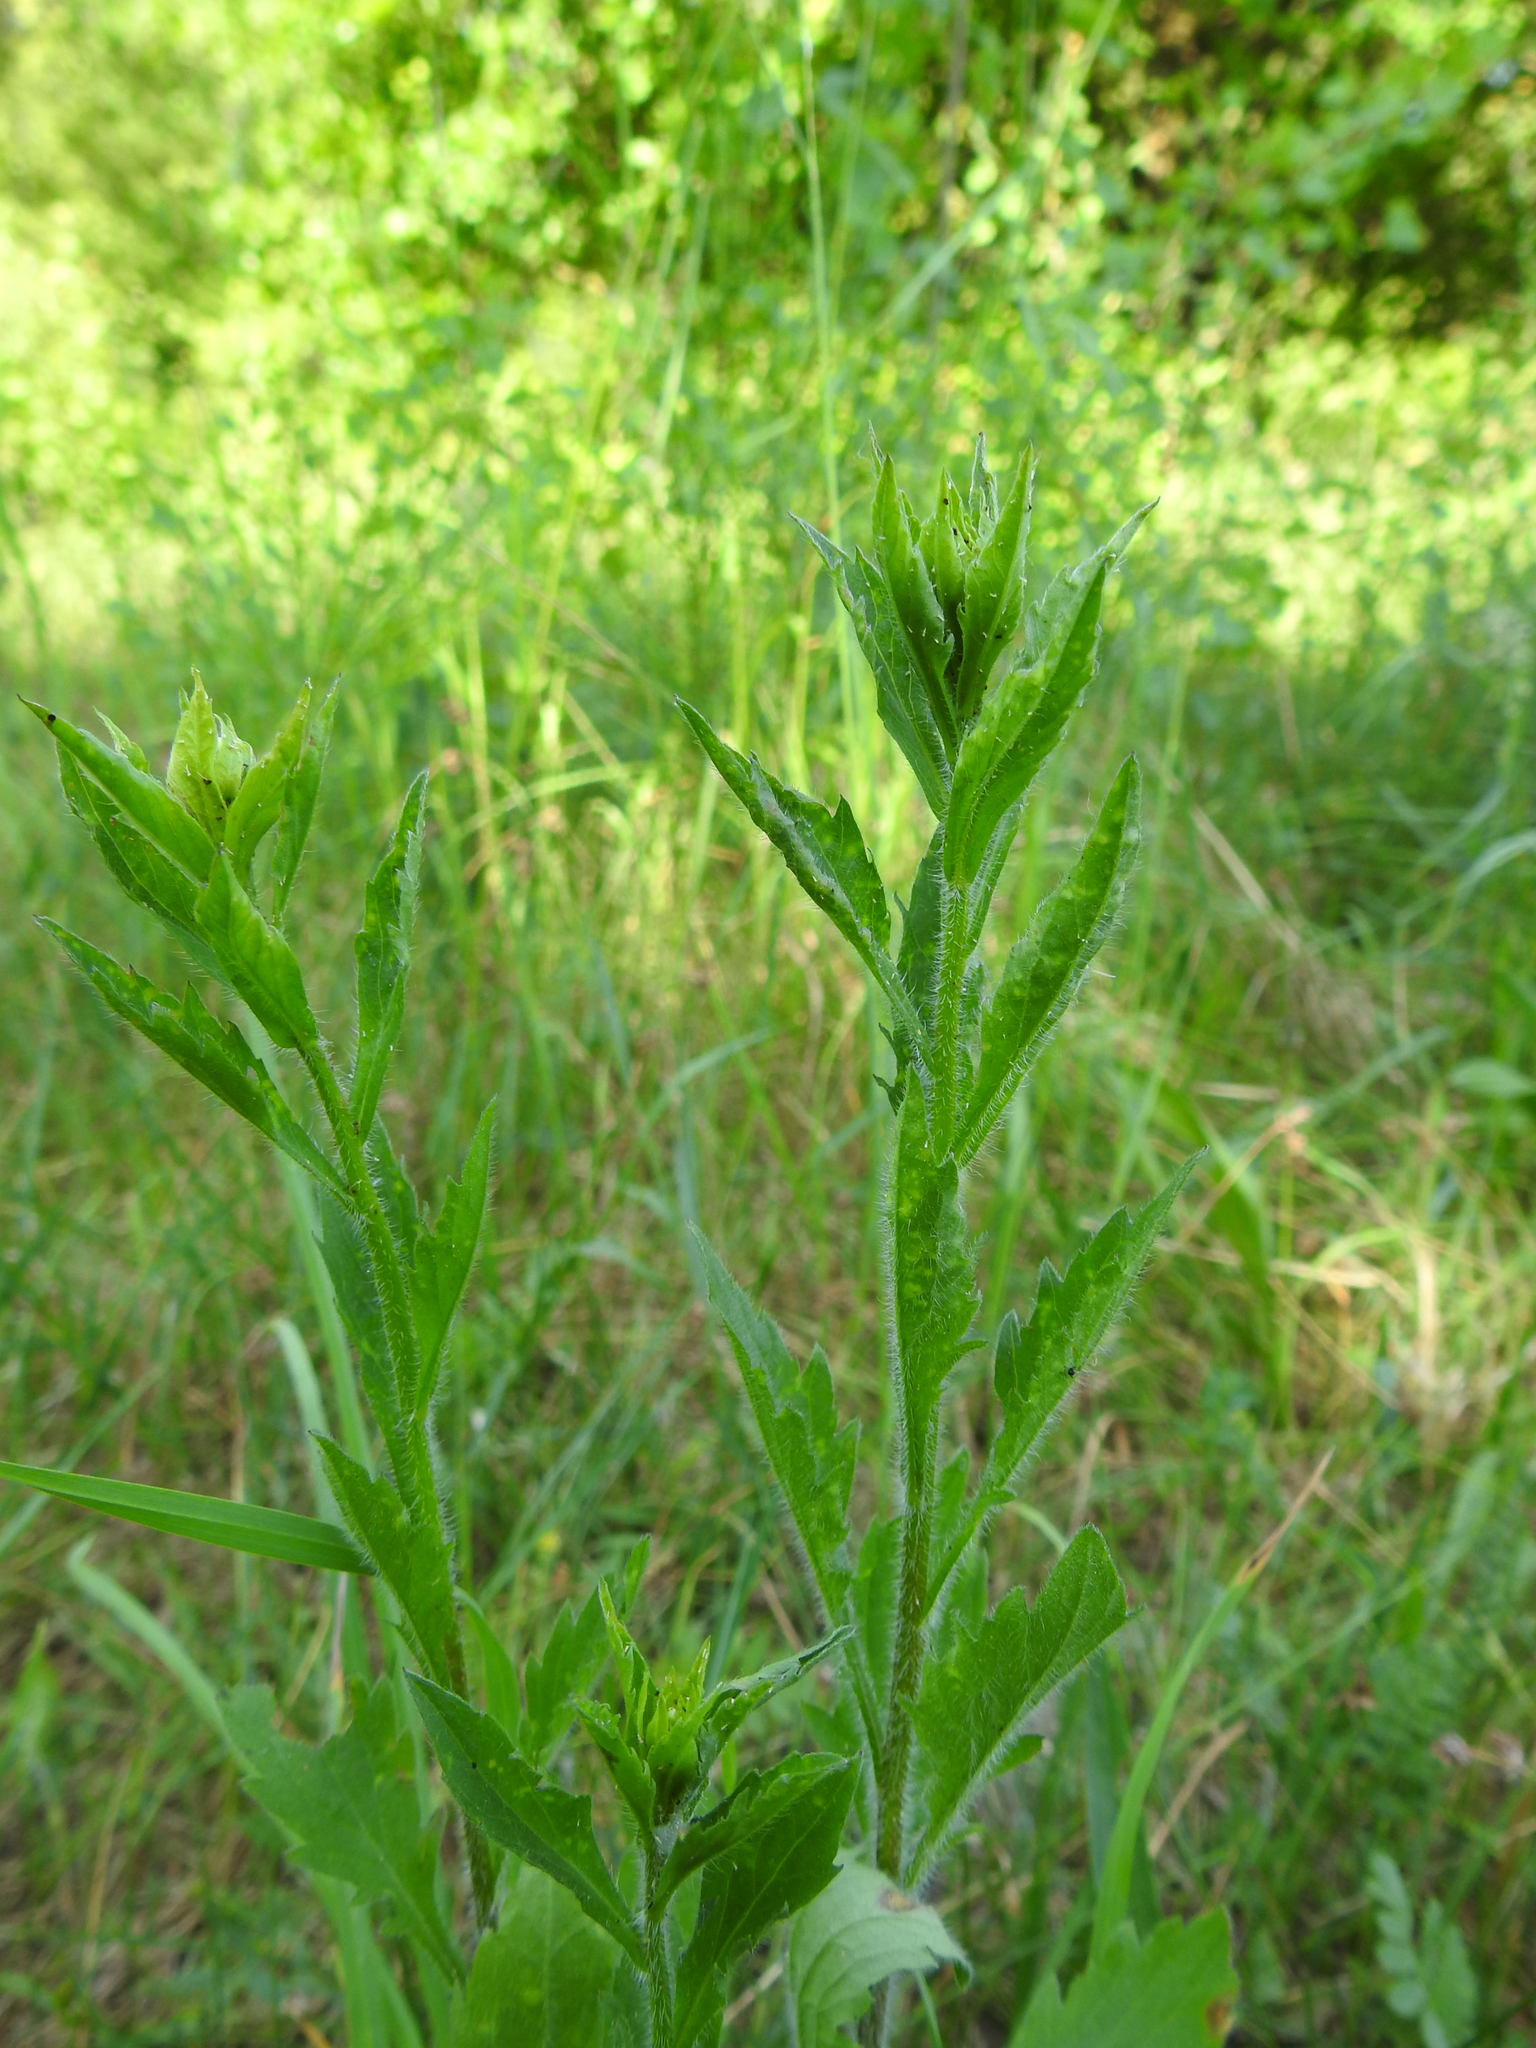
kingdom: Plantae
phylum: Tracheophyta
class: Magnoliopsida
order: Asterales
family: Asteraceae
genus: Erigeron
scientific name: Erigeron annuus
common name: Tall fleabane
